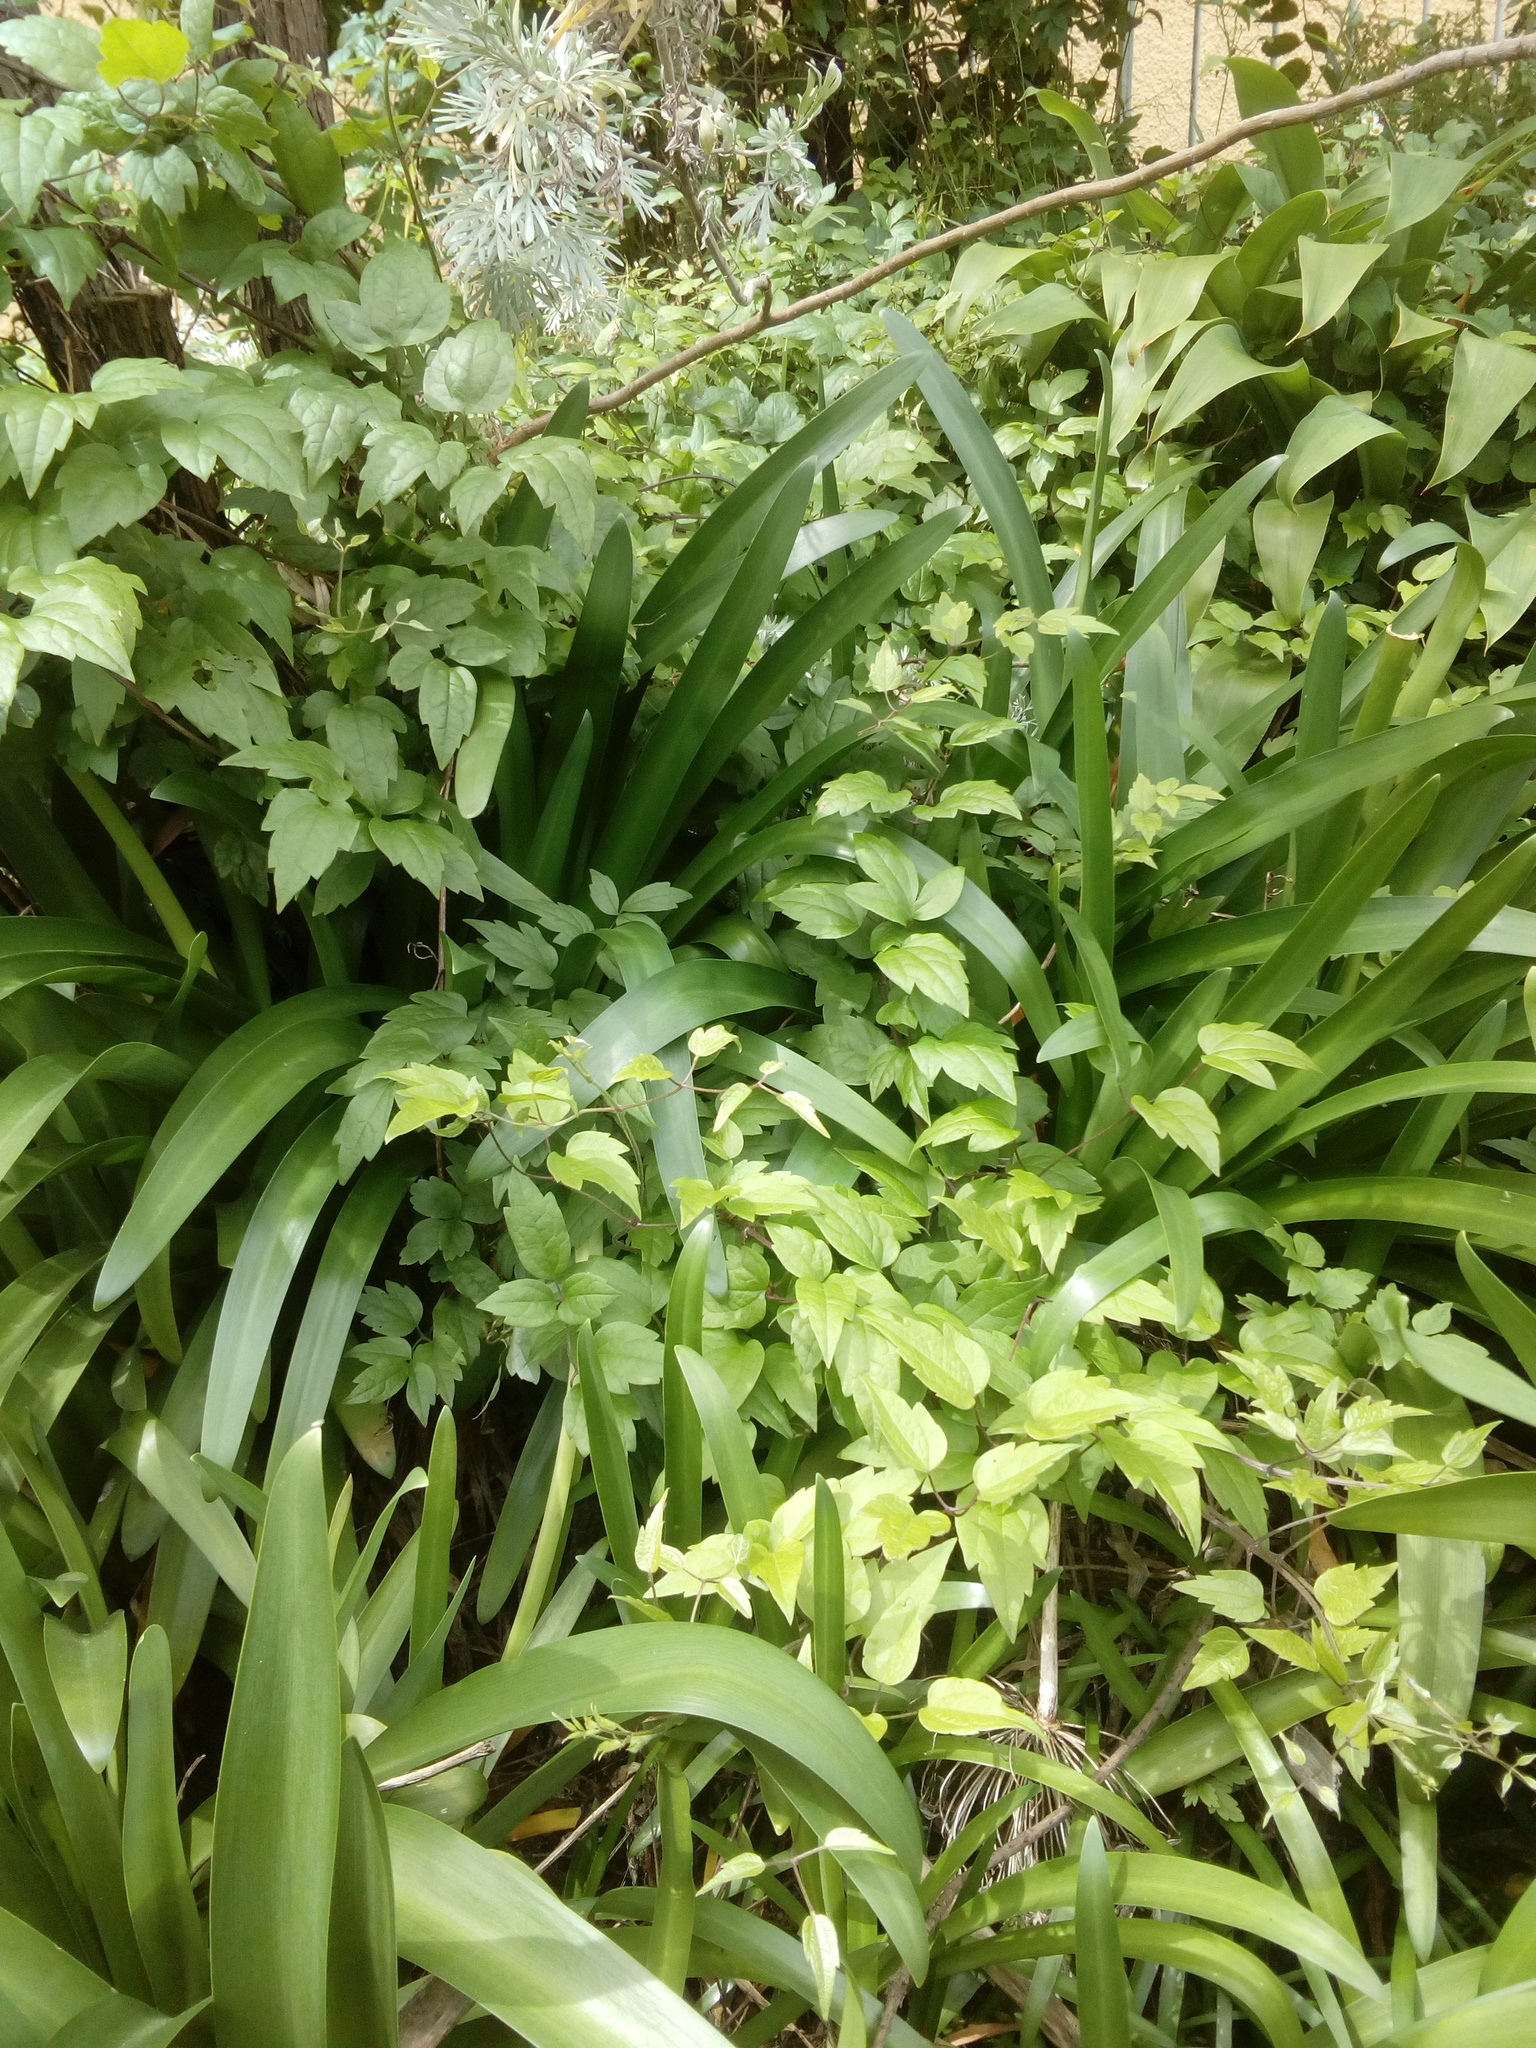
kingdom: Plantae
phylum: Tracheophyta
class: Magnoliopsida
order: Ranunculales
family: Ranunculaceae
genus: Clematis
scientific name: Clematis vitalba
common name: Evergreen clematis
